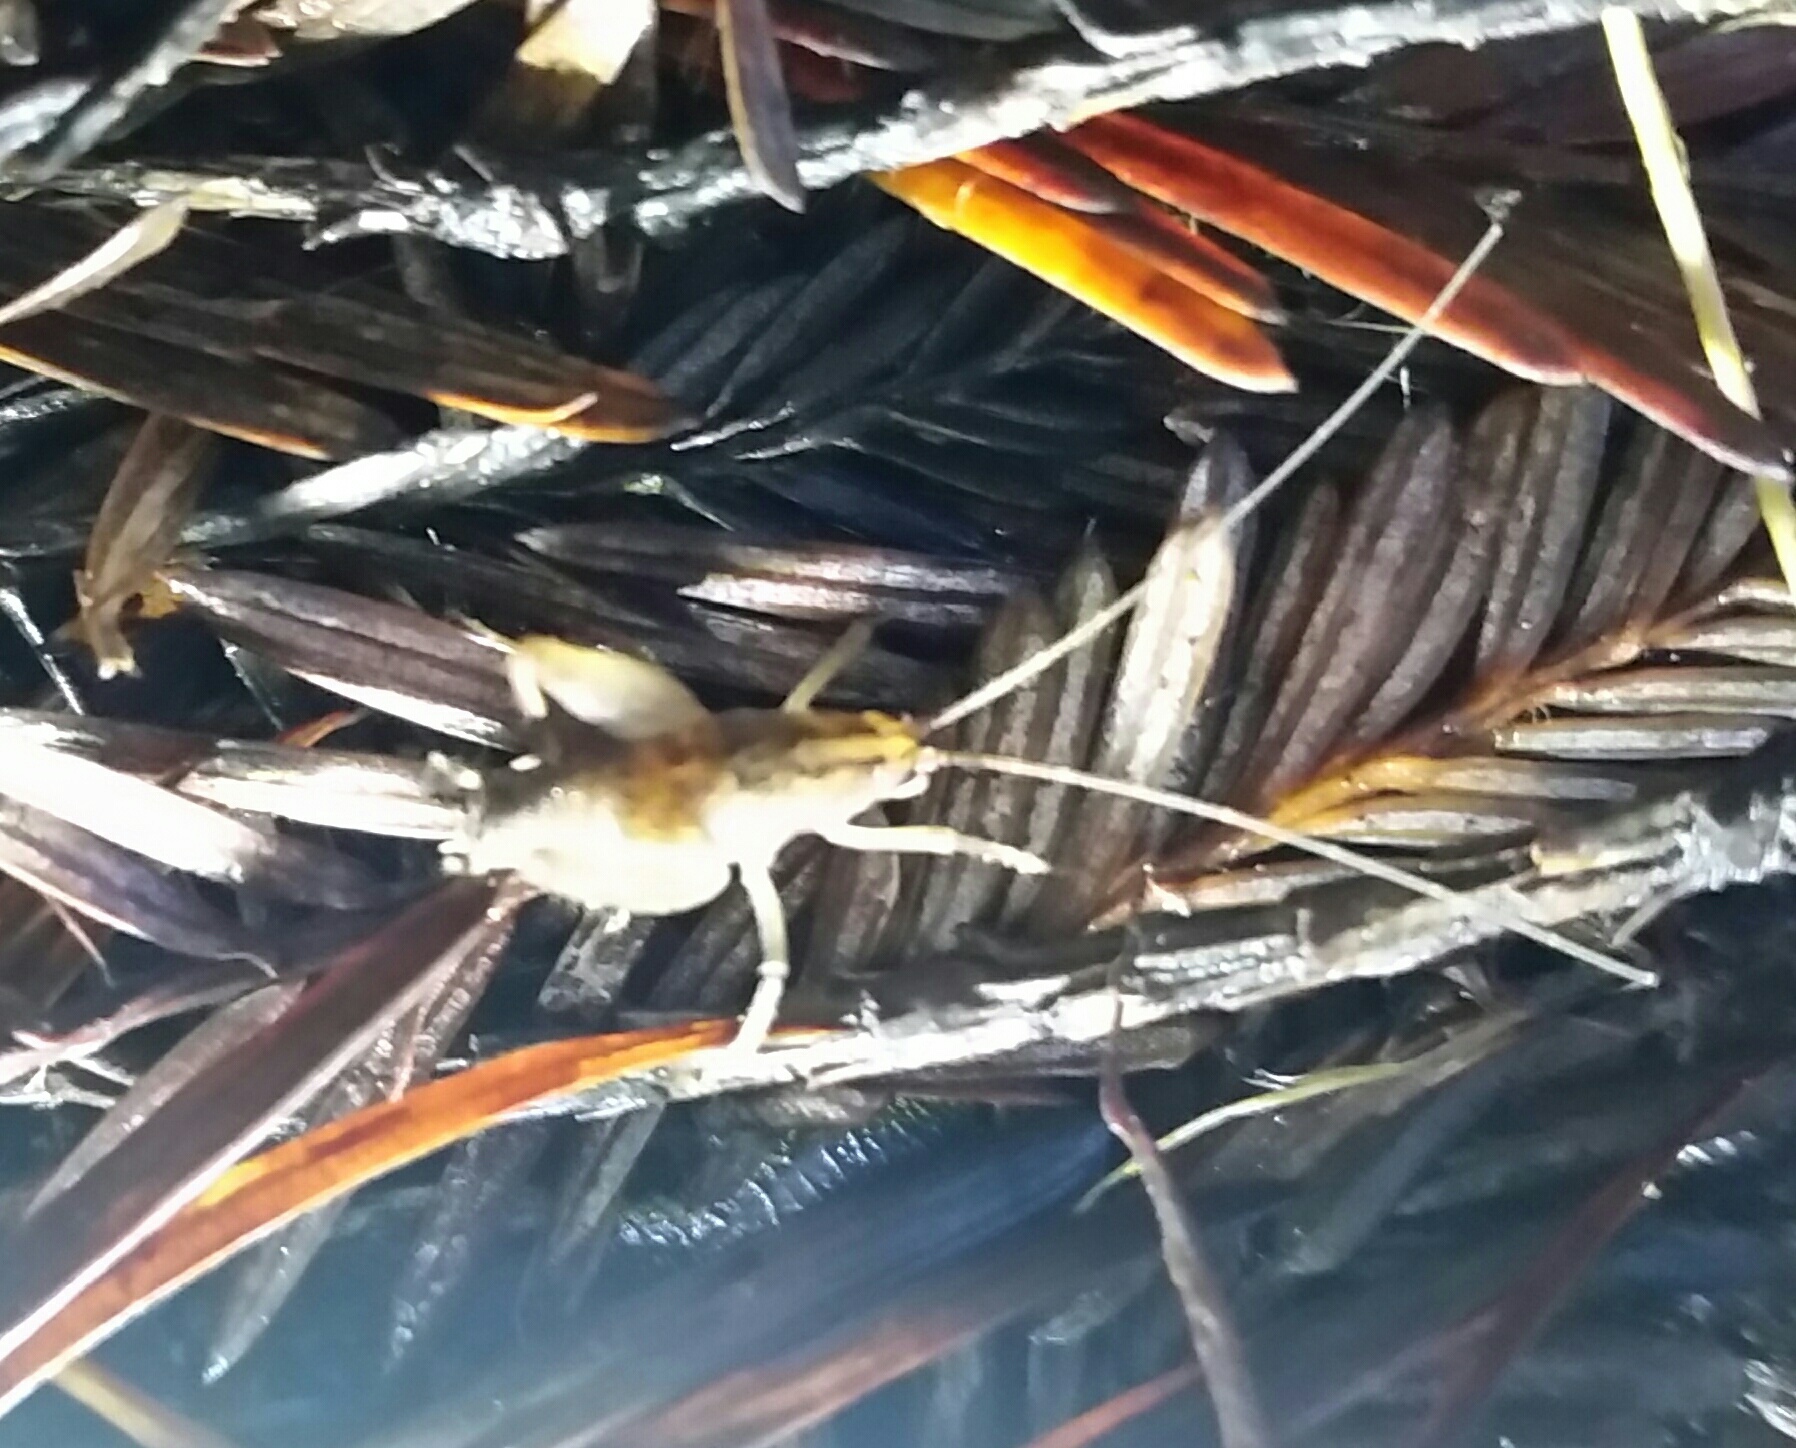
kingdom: Animalia
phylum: Arthropoda
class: Insecta
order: Orthoptera
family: Rhaphidophoridae
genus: Pristoceuthophilus
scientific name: Pristoceuthophilus
